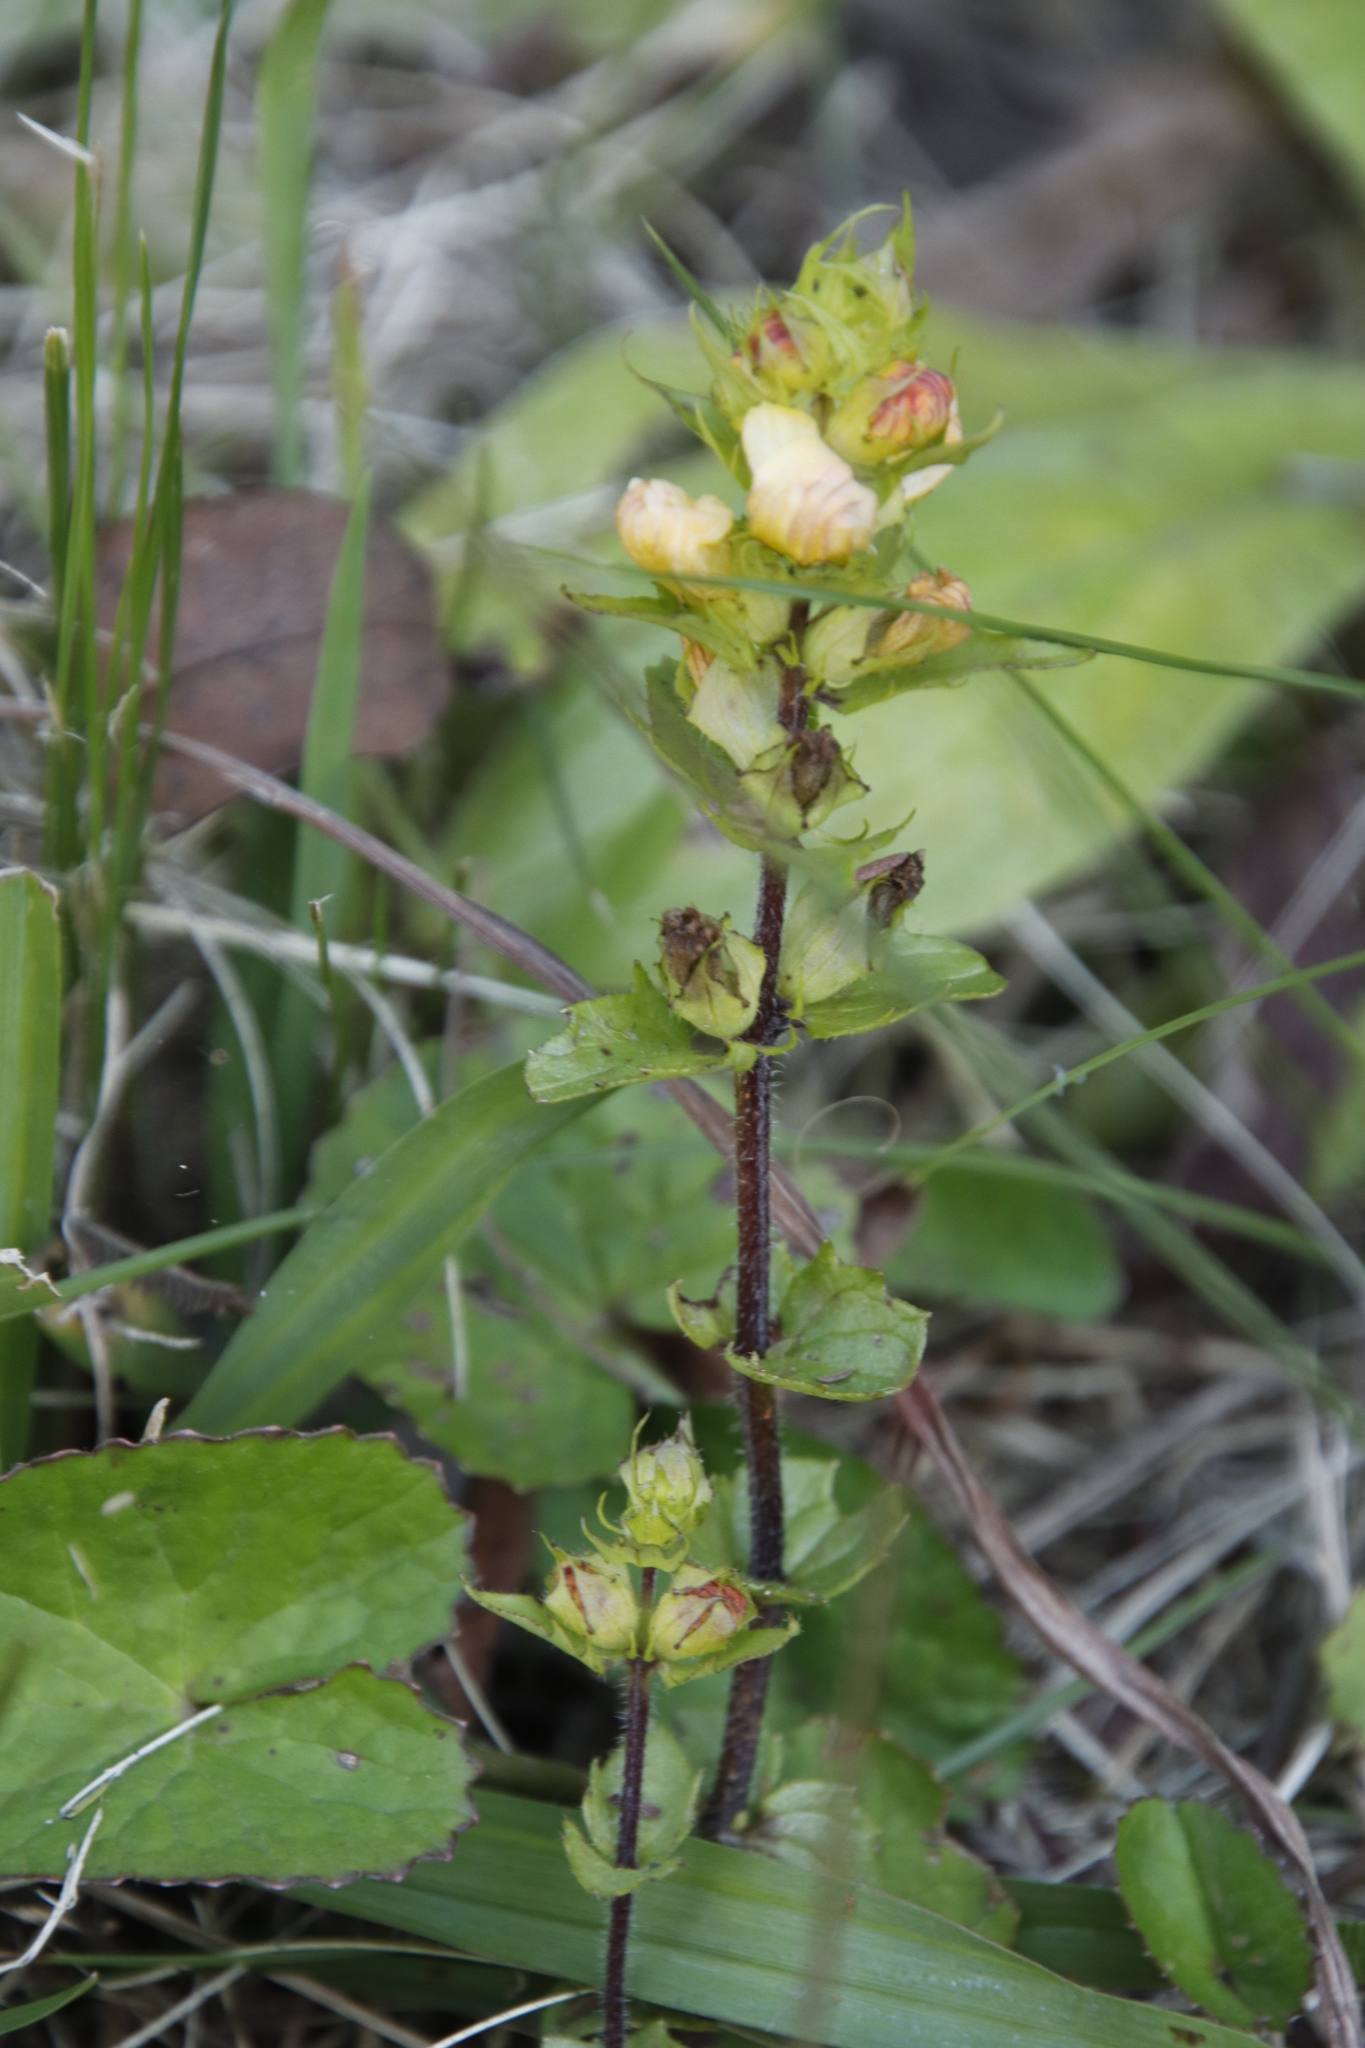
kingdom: Plantae
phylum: Tracheophyta
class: Magnoliopsida
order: Lamiales
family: Orobanchaceae
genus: Alectra
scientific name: Alectra orobanchoides
